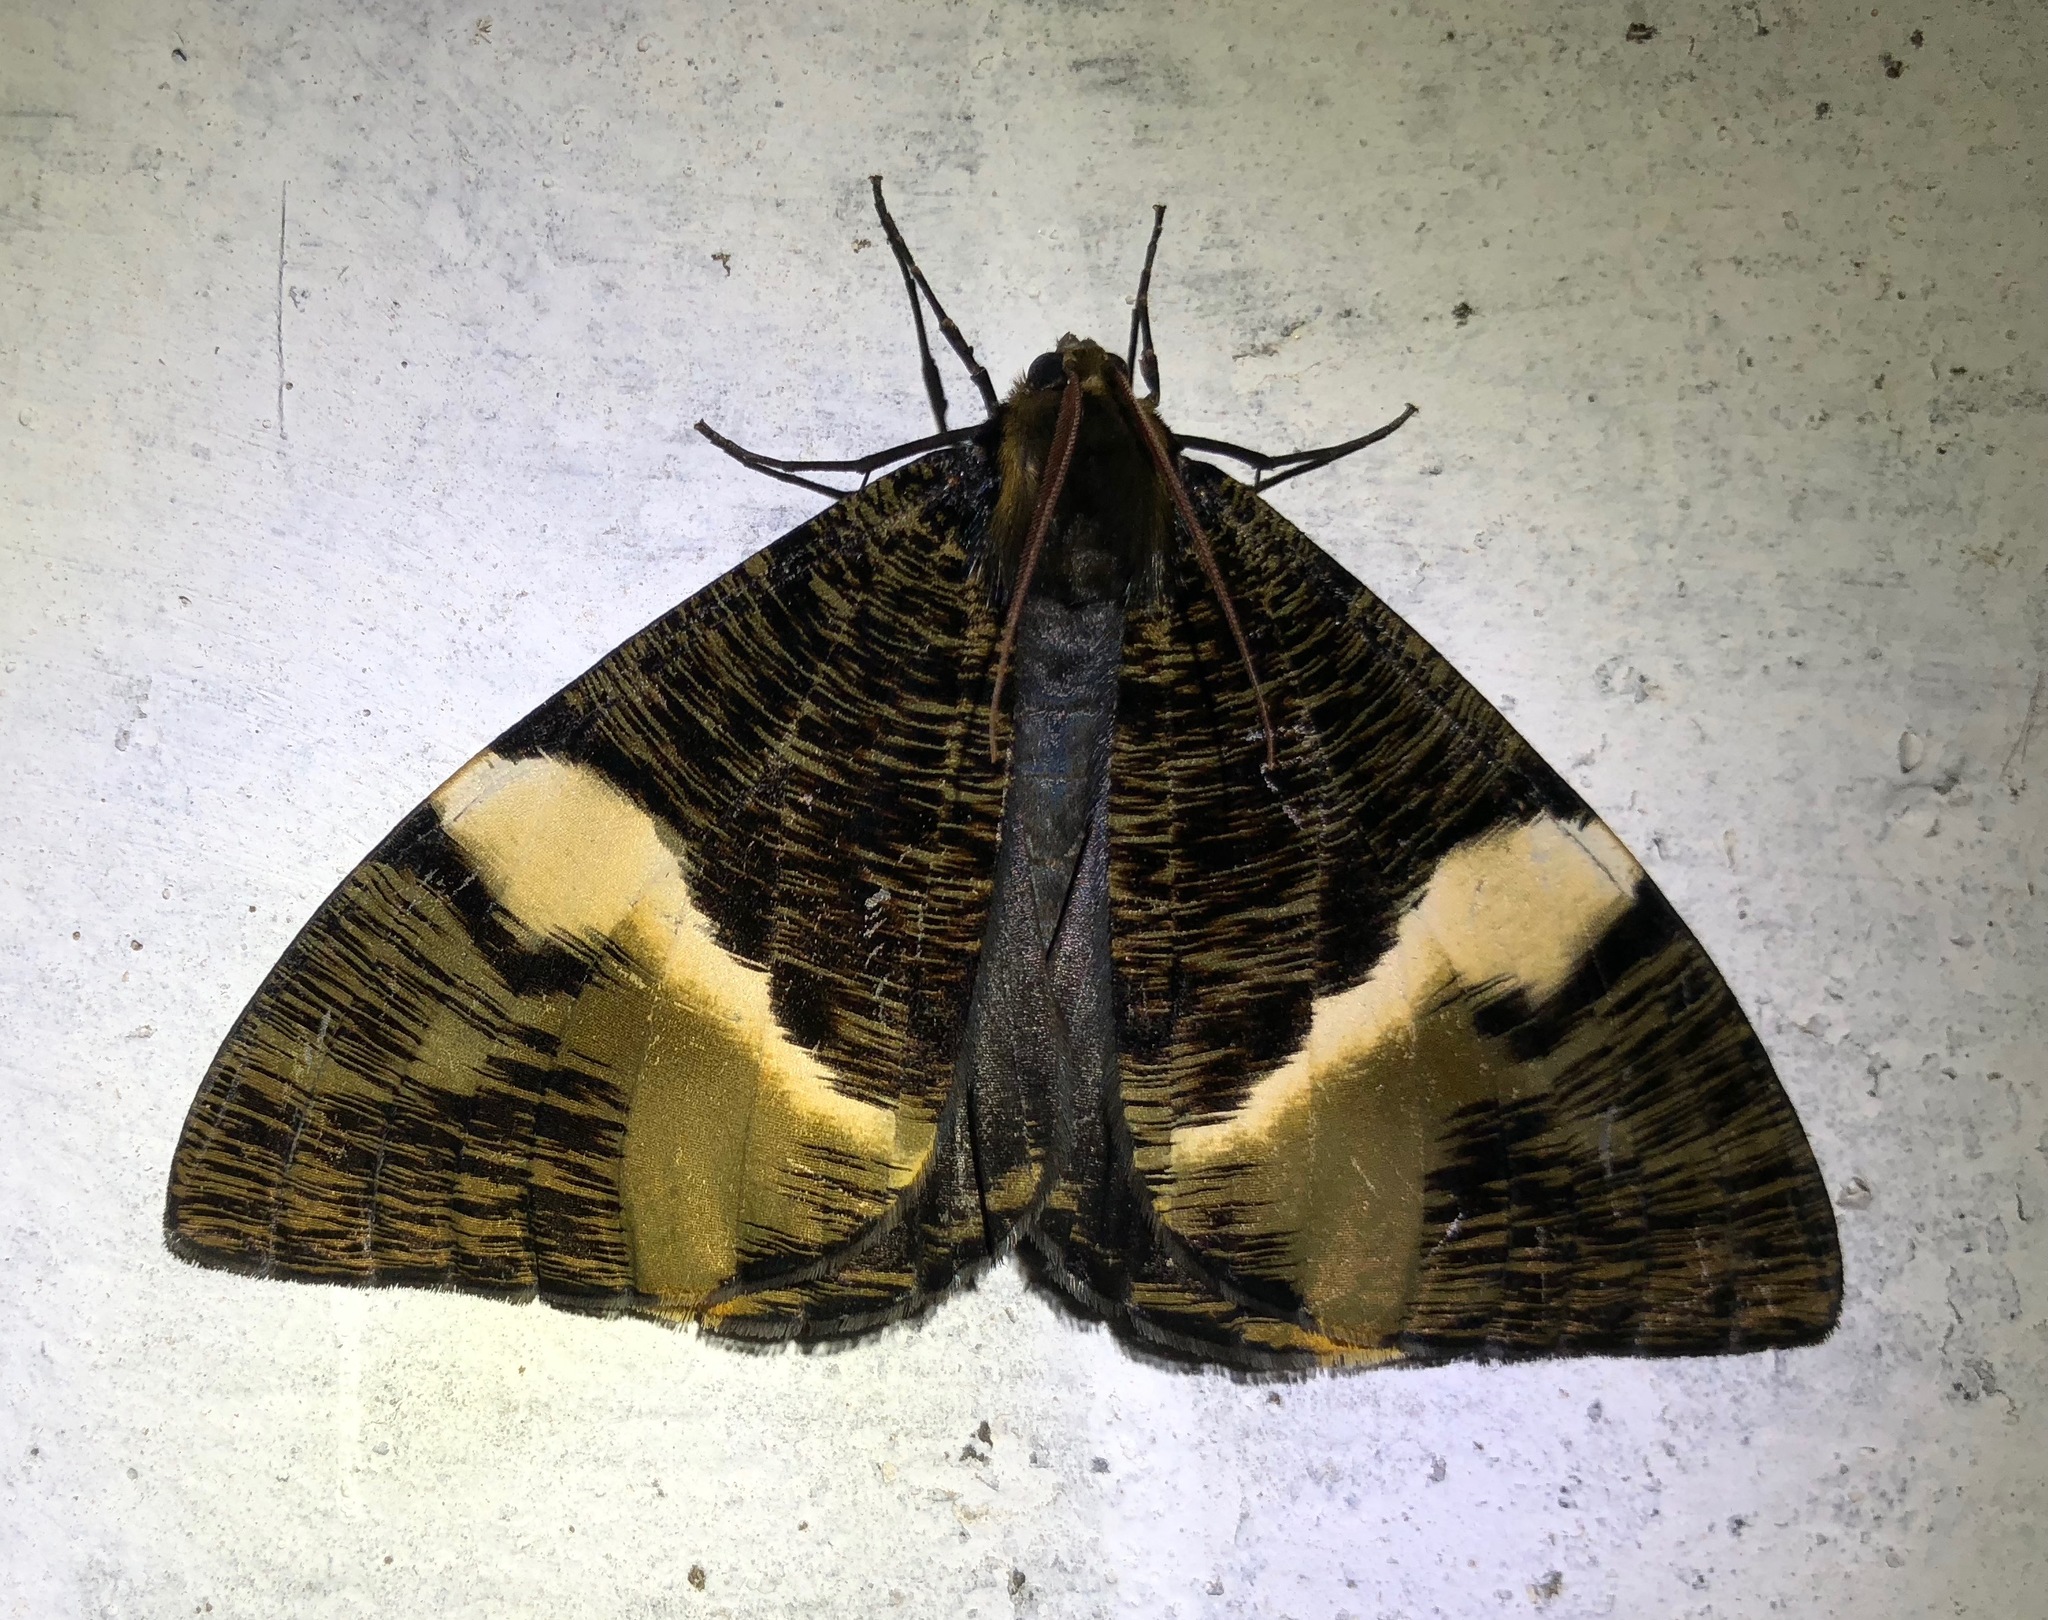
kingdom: Animalia
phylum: Arthropoda
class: Insecta
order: Lepidoptera
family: Geometridae
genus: Xandrames
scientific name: Xandrames albofasciata
